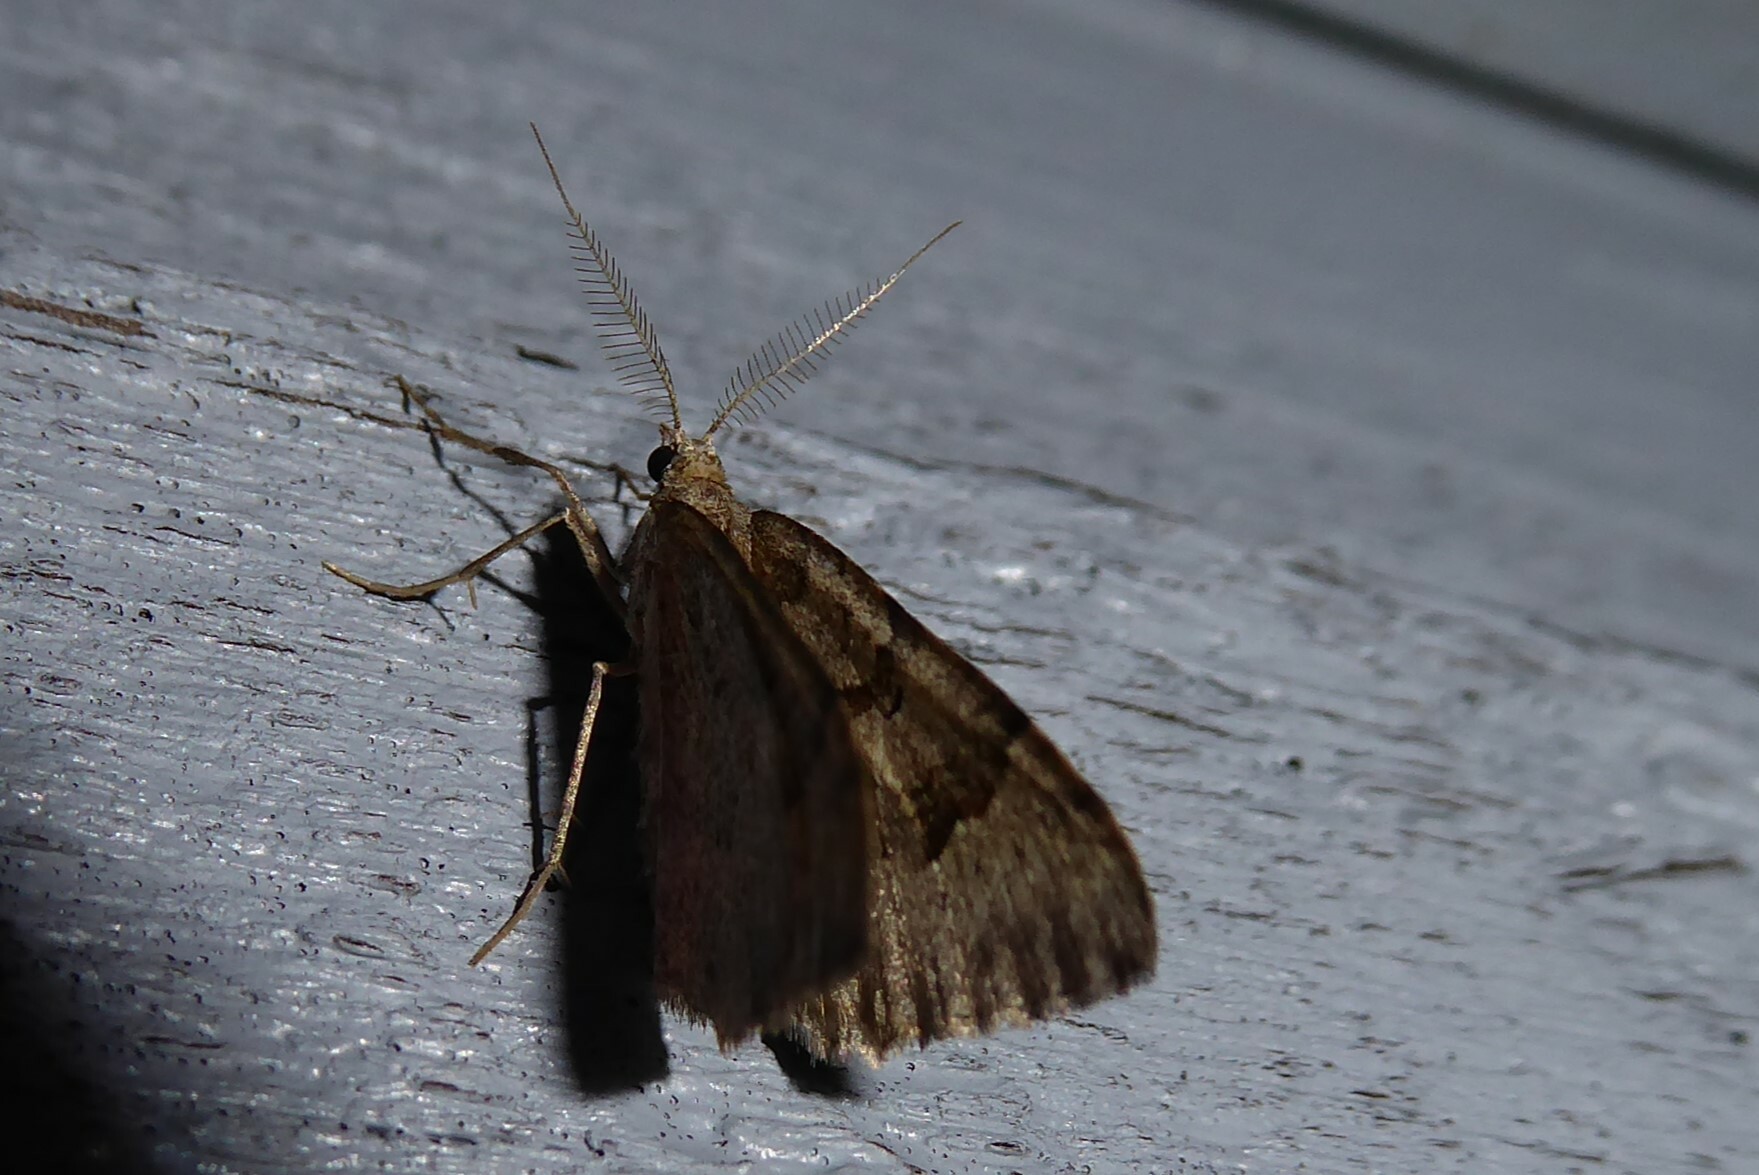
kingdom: Animalia
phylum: Arthropoda
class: Insecta
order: Lepidoptera
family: Geometridae
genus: Epyaxa
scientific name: Epyaxa rosearia
